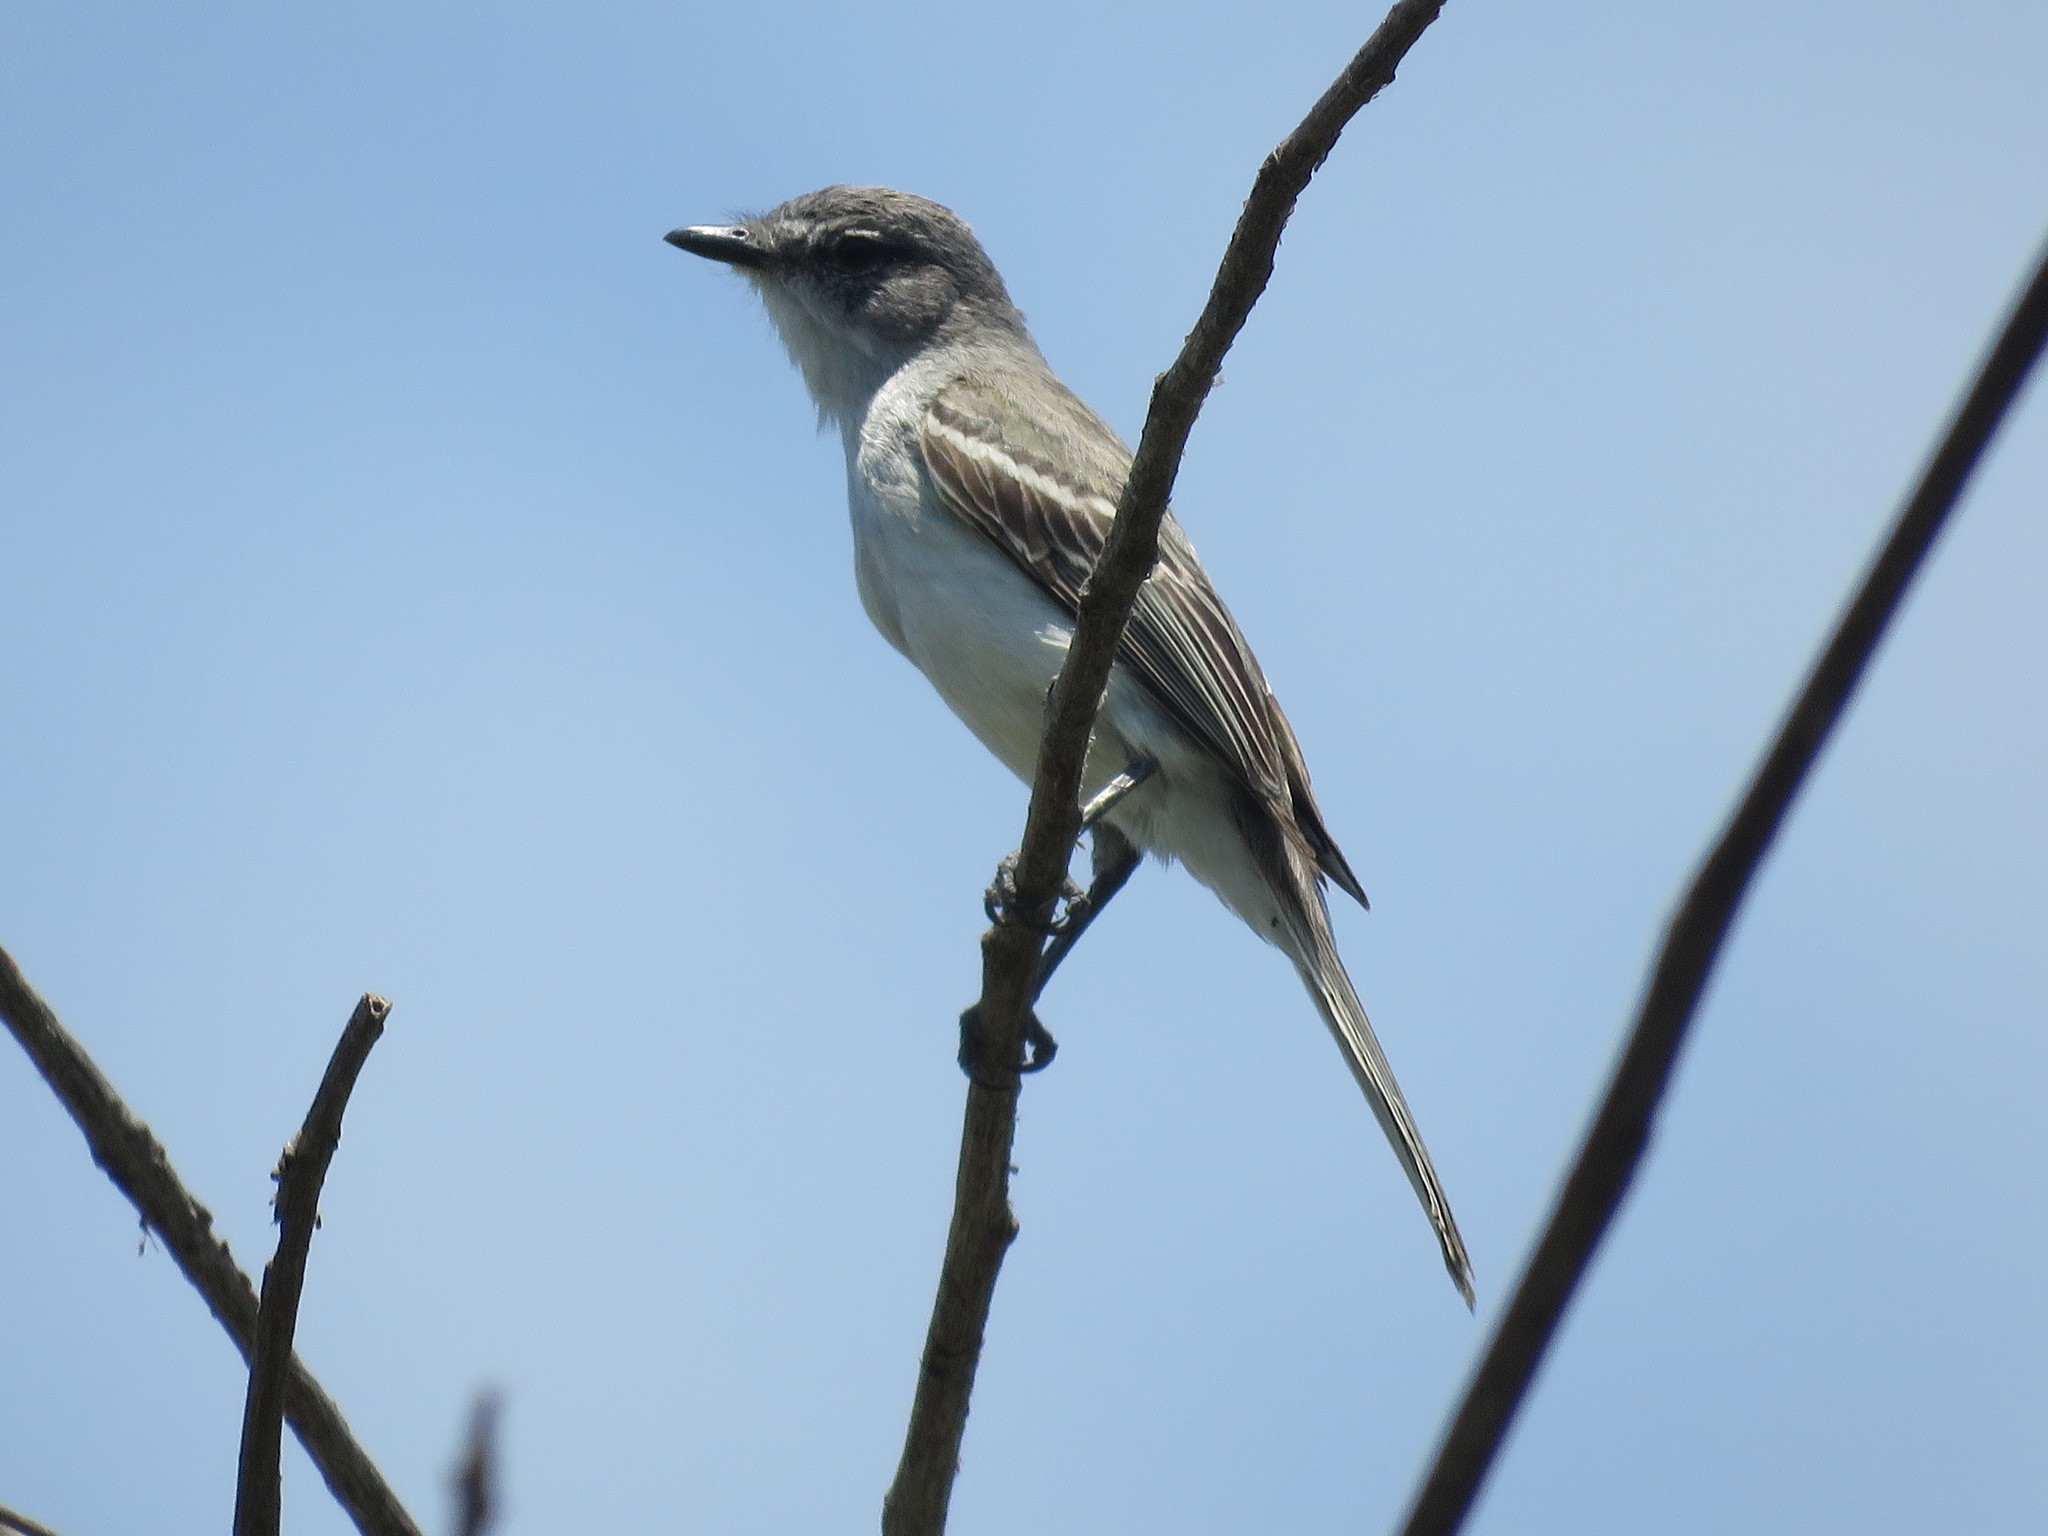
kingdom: Animalia
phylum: Chordata
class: Aves
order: Passeriformes
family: Tyrannidae
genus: Suiriri
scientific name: Suiriri suiriri
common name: Suiriri flycatcher
